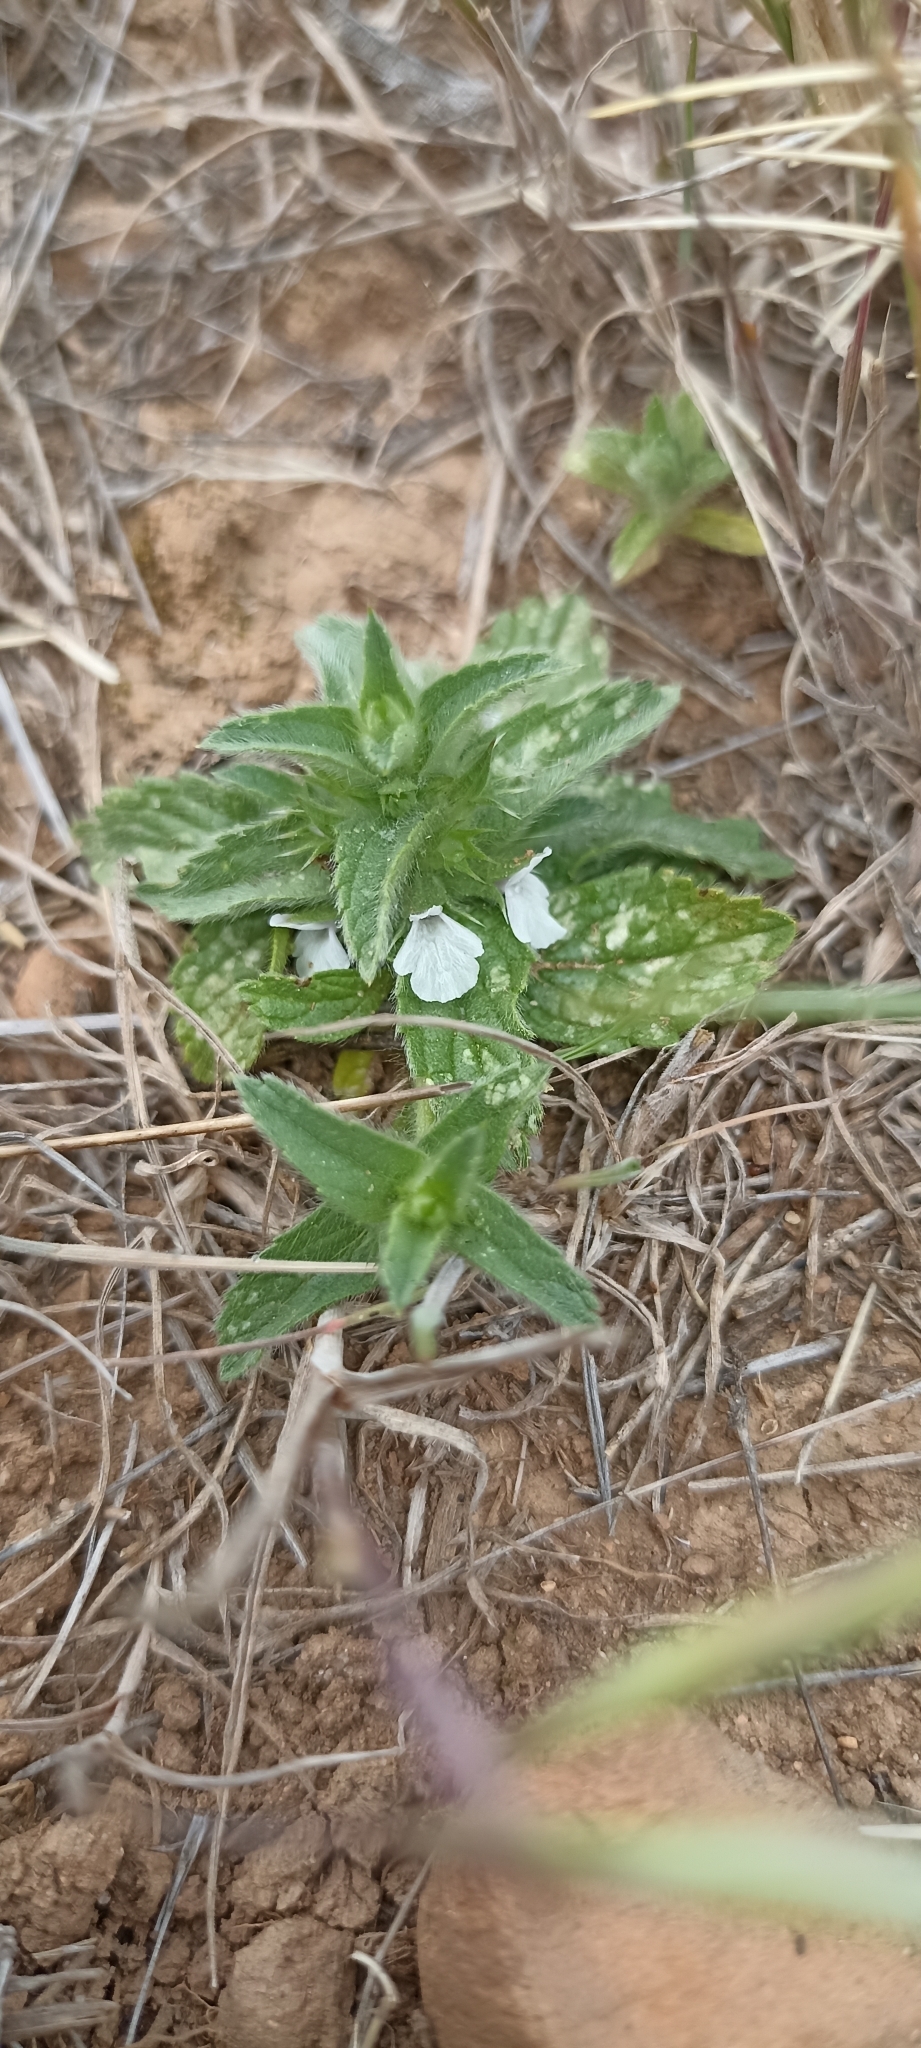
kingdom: Plantae
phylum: Tracheophyta
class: Magnoliopsida
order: Lamiales
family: Lamiaceae
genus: Sideritis
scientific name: Sideritis romana
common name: Simplebeak ironwort
